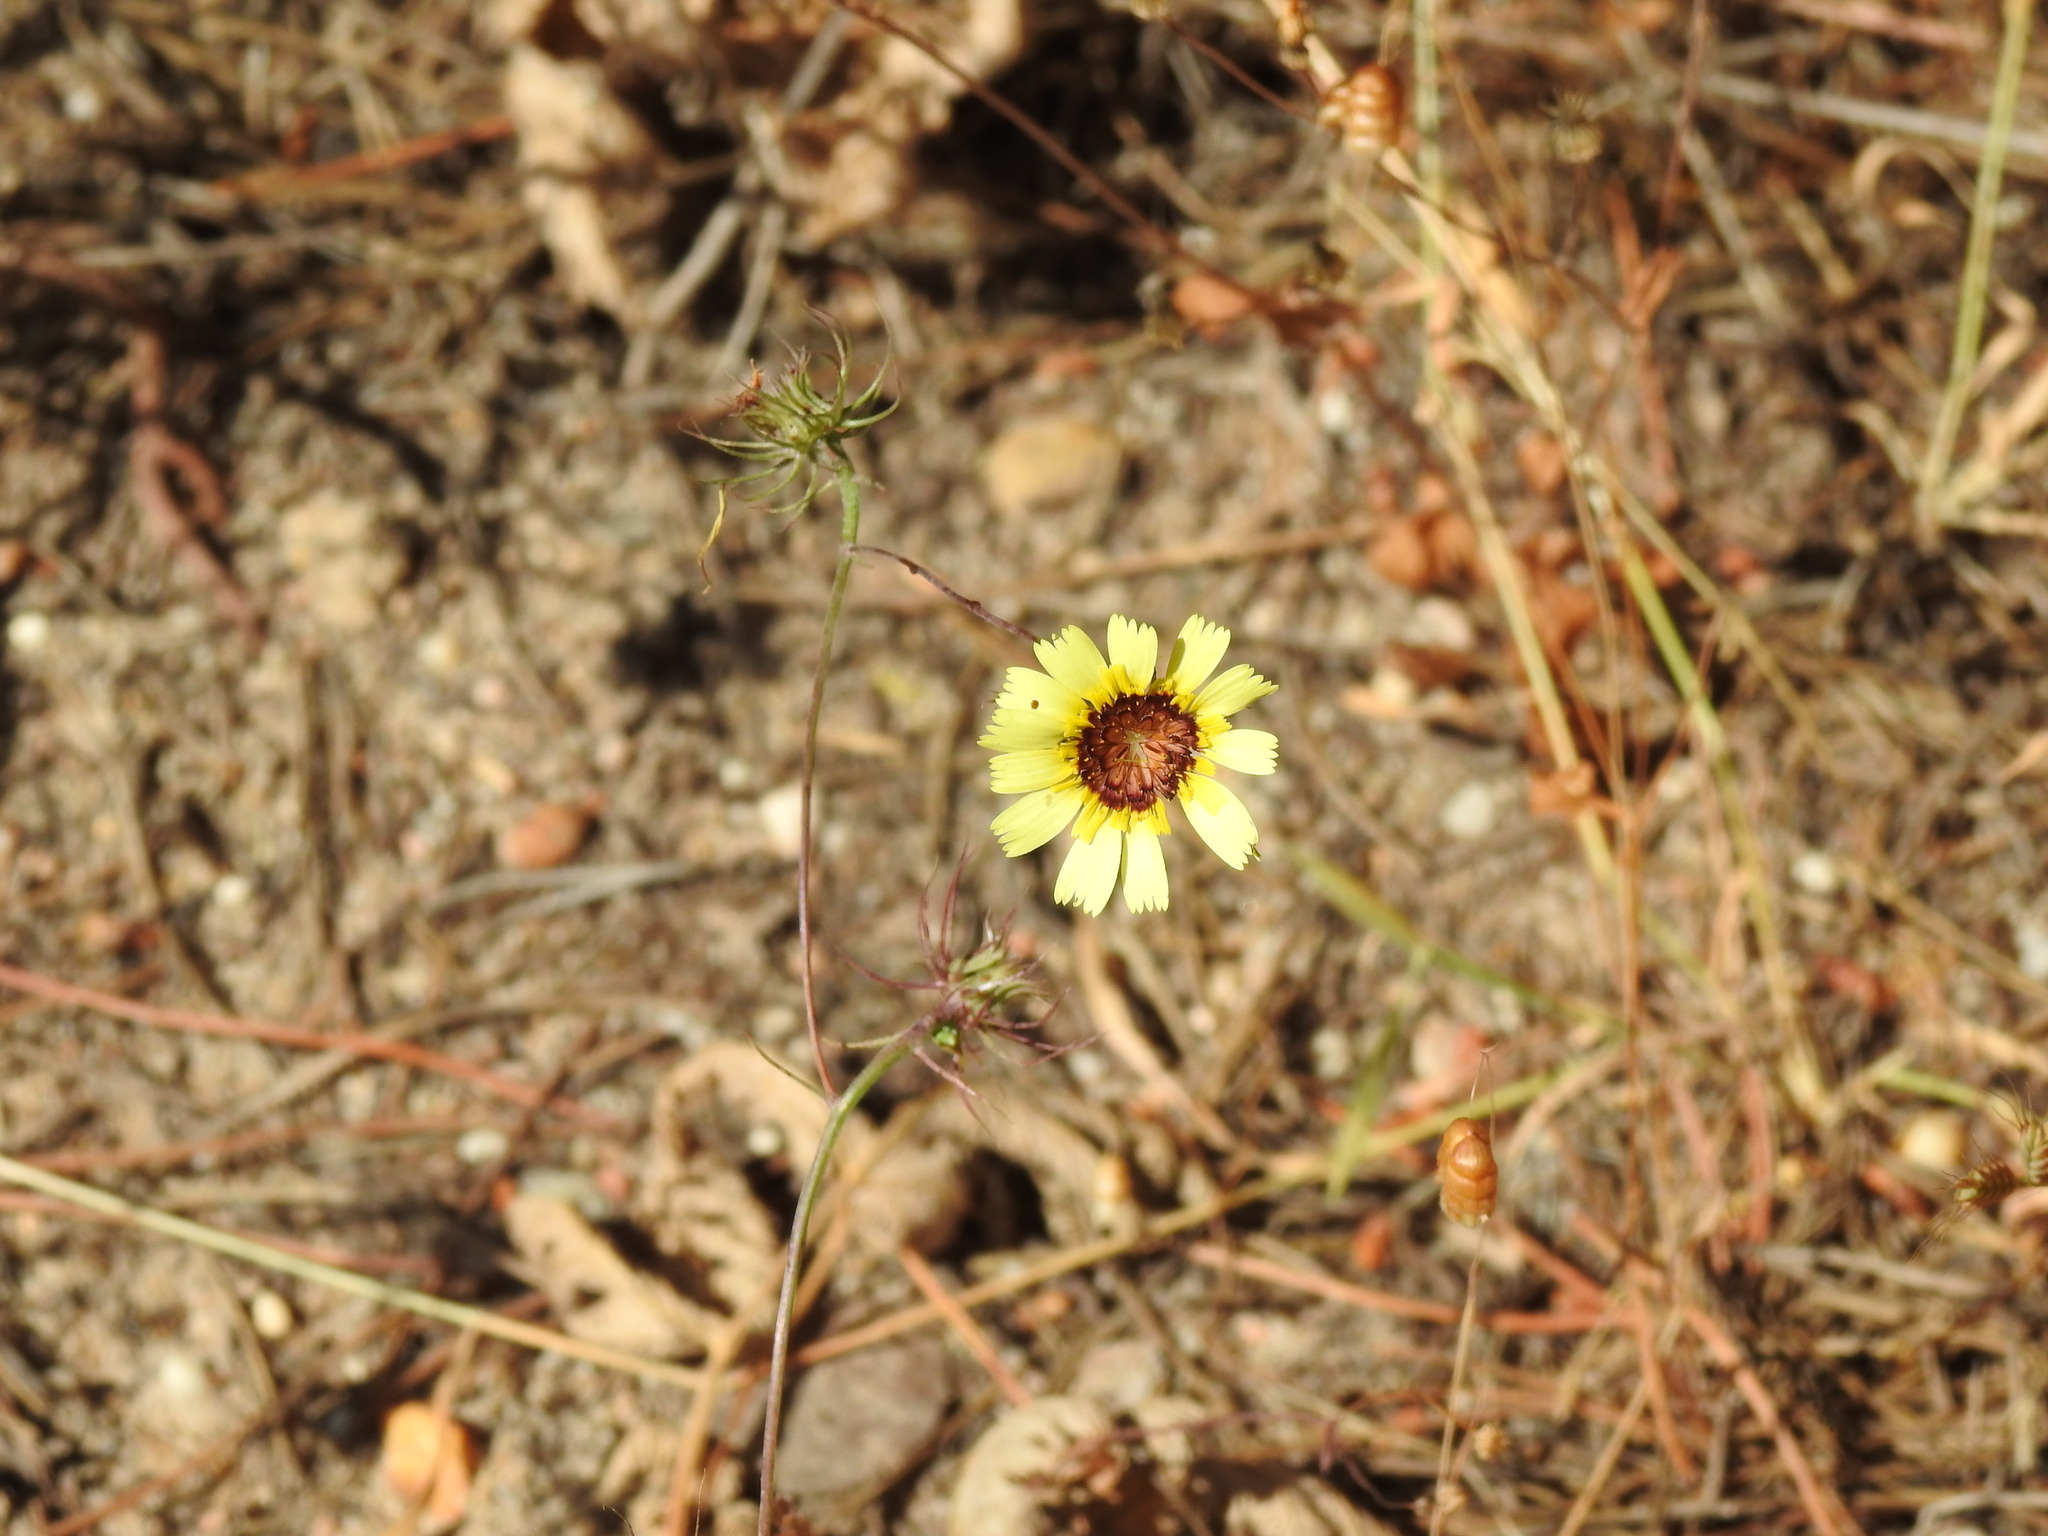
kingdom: Plantae
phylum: Tracheophyta
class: Magnoliopsida
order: Asterales
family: Asteraceae
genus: Tolpis
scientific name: Tolpis barbata
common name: Yellow hawkweed
